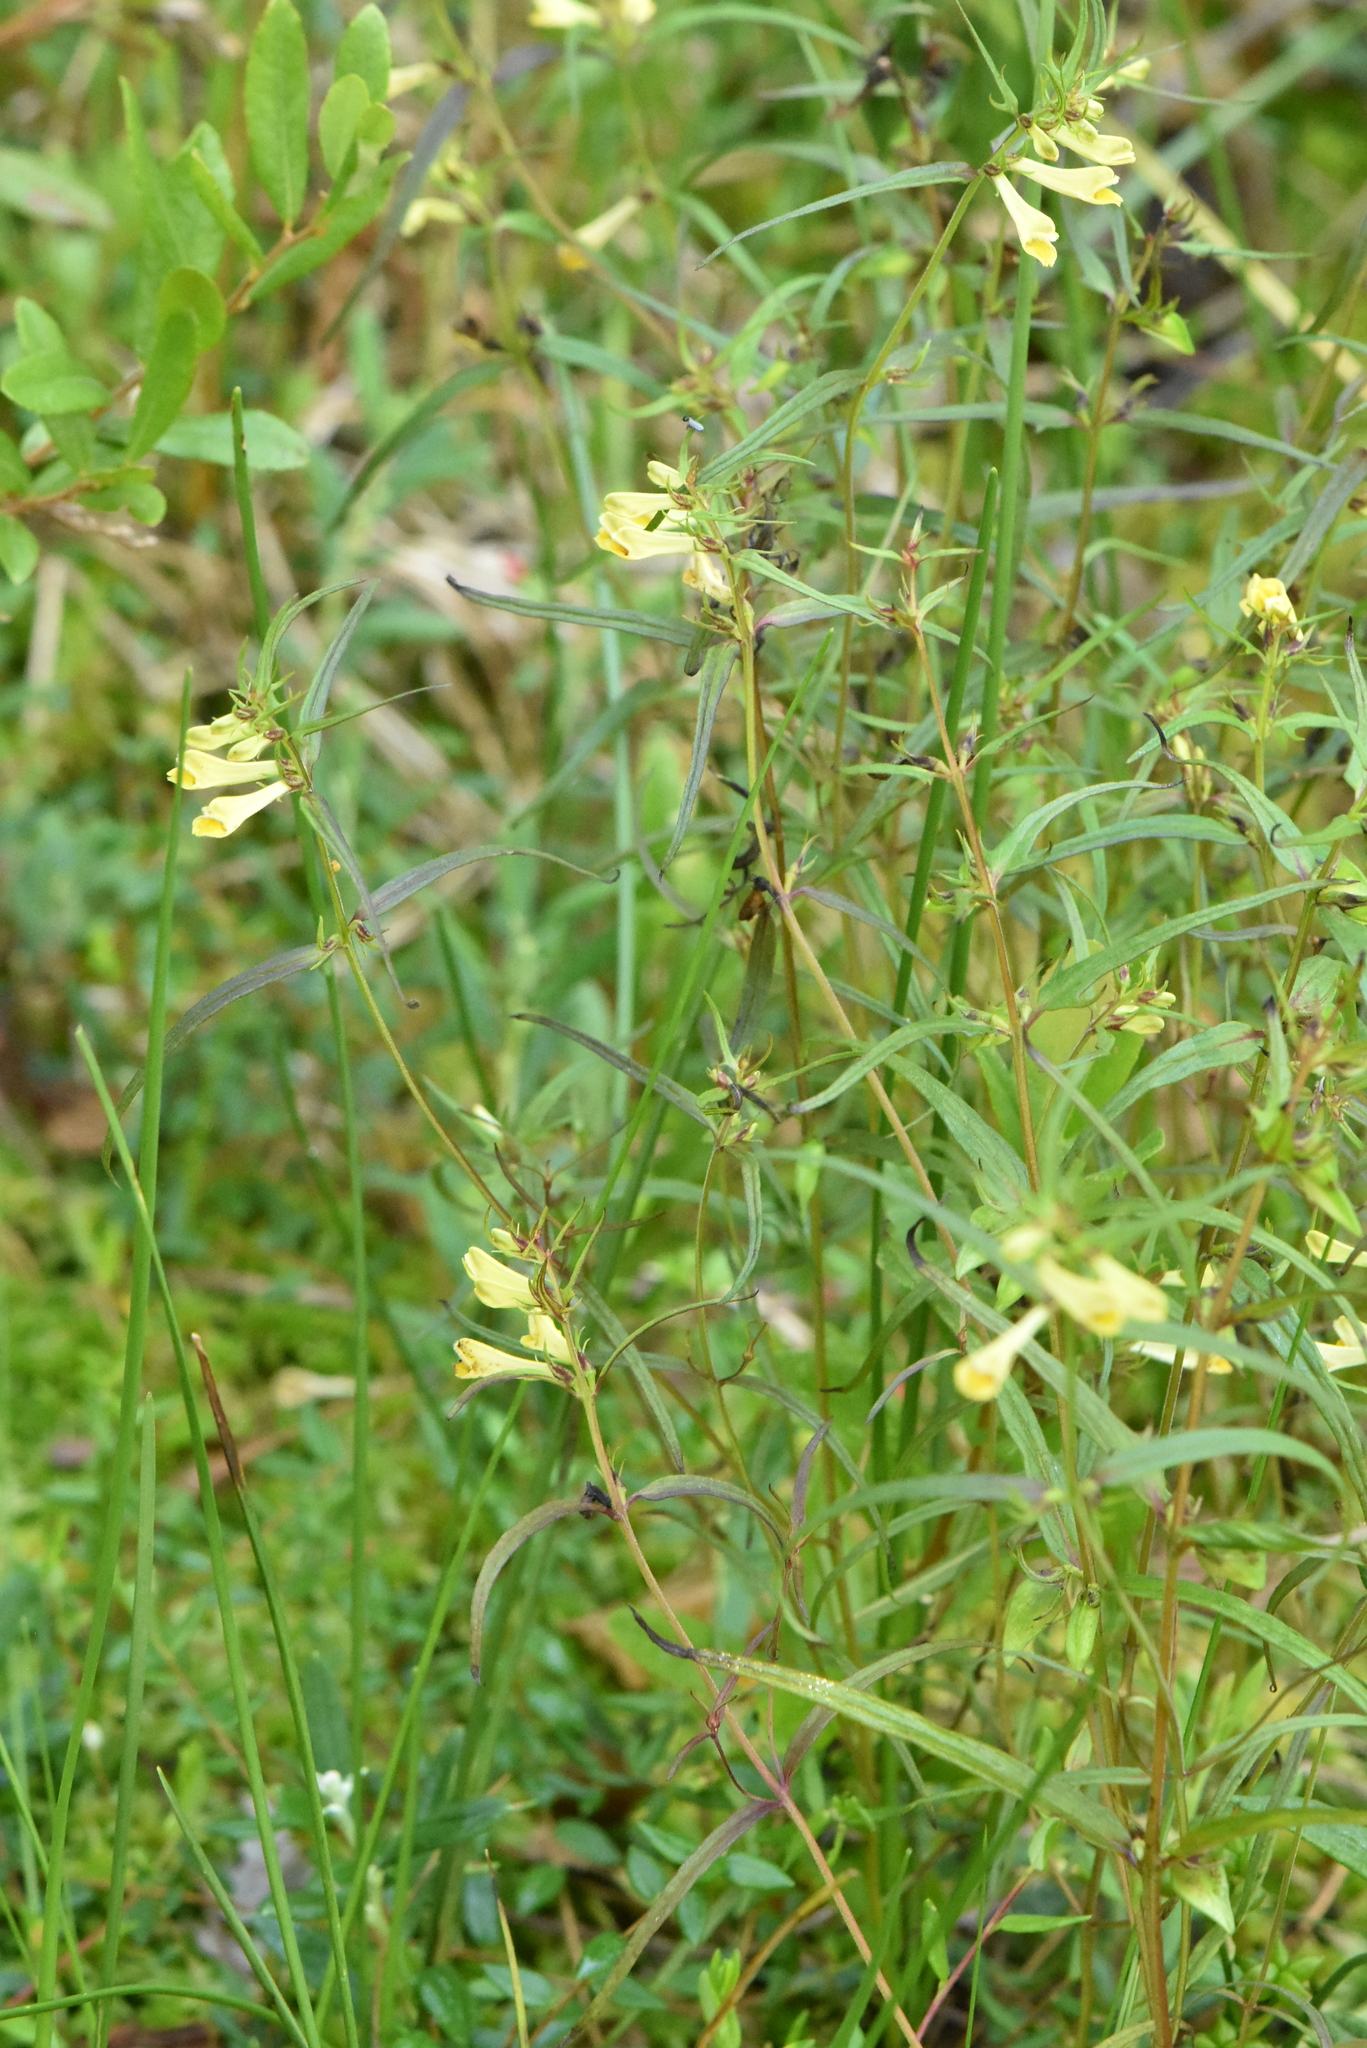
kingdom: Plantae
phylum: Tracheophyta
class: Magnoliopsida
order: Lamiales
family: Orobanchaceae
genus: Melampyrum
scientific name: Melampyrum pratense
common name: Common cow-wheat
